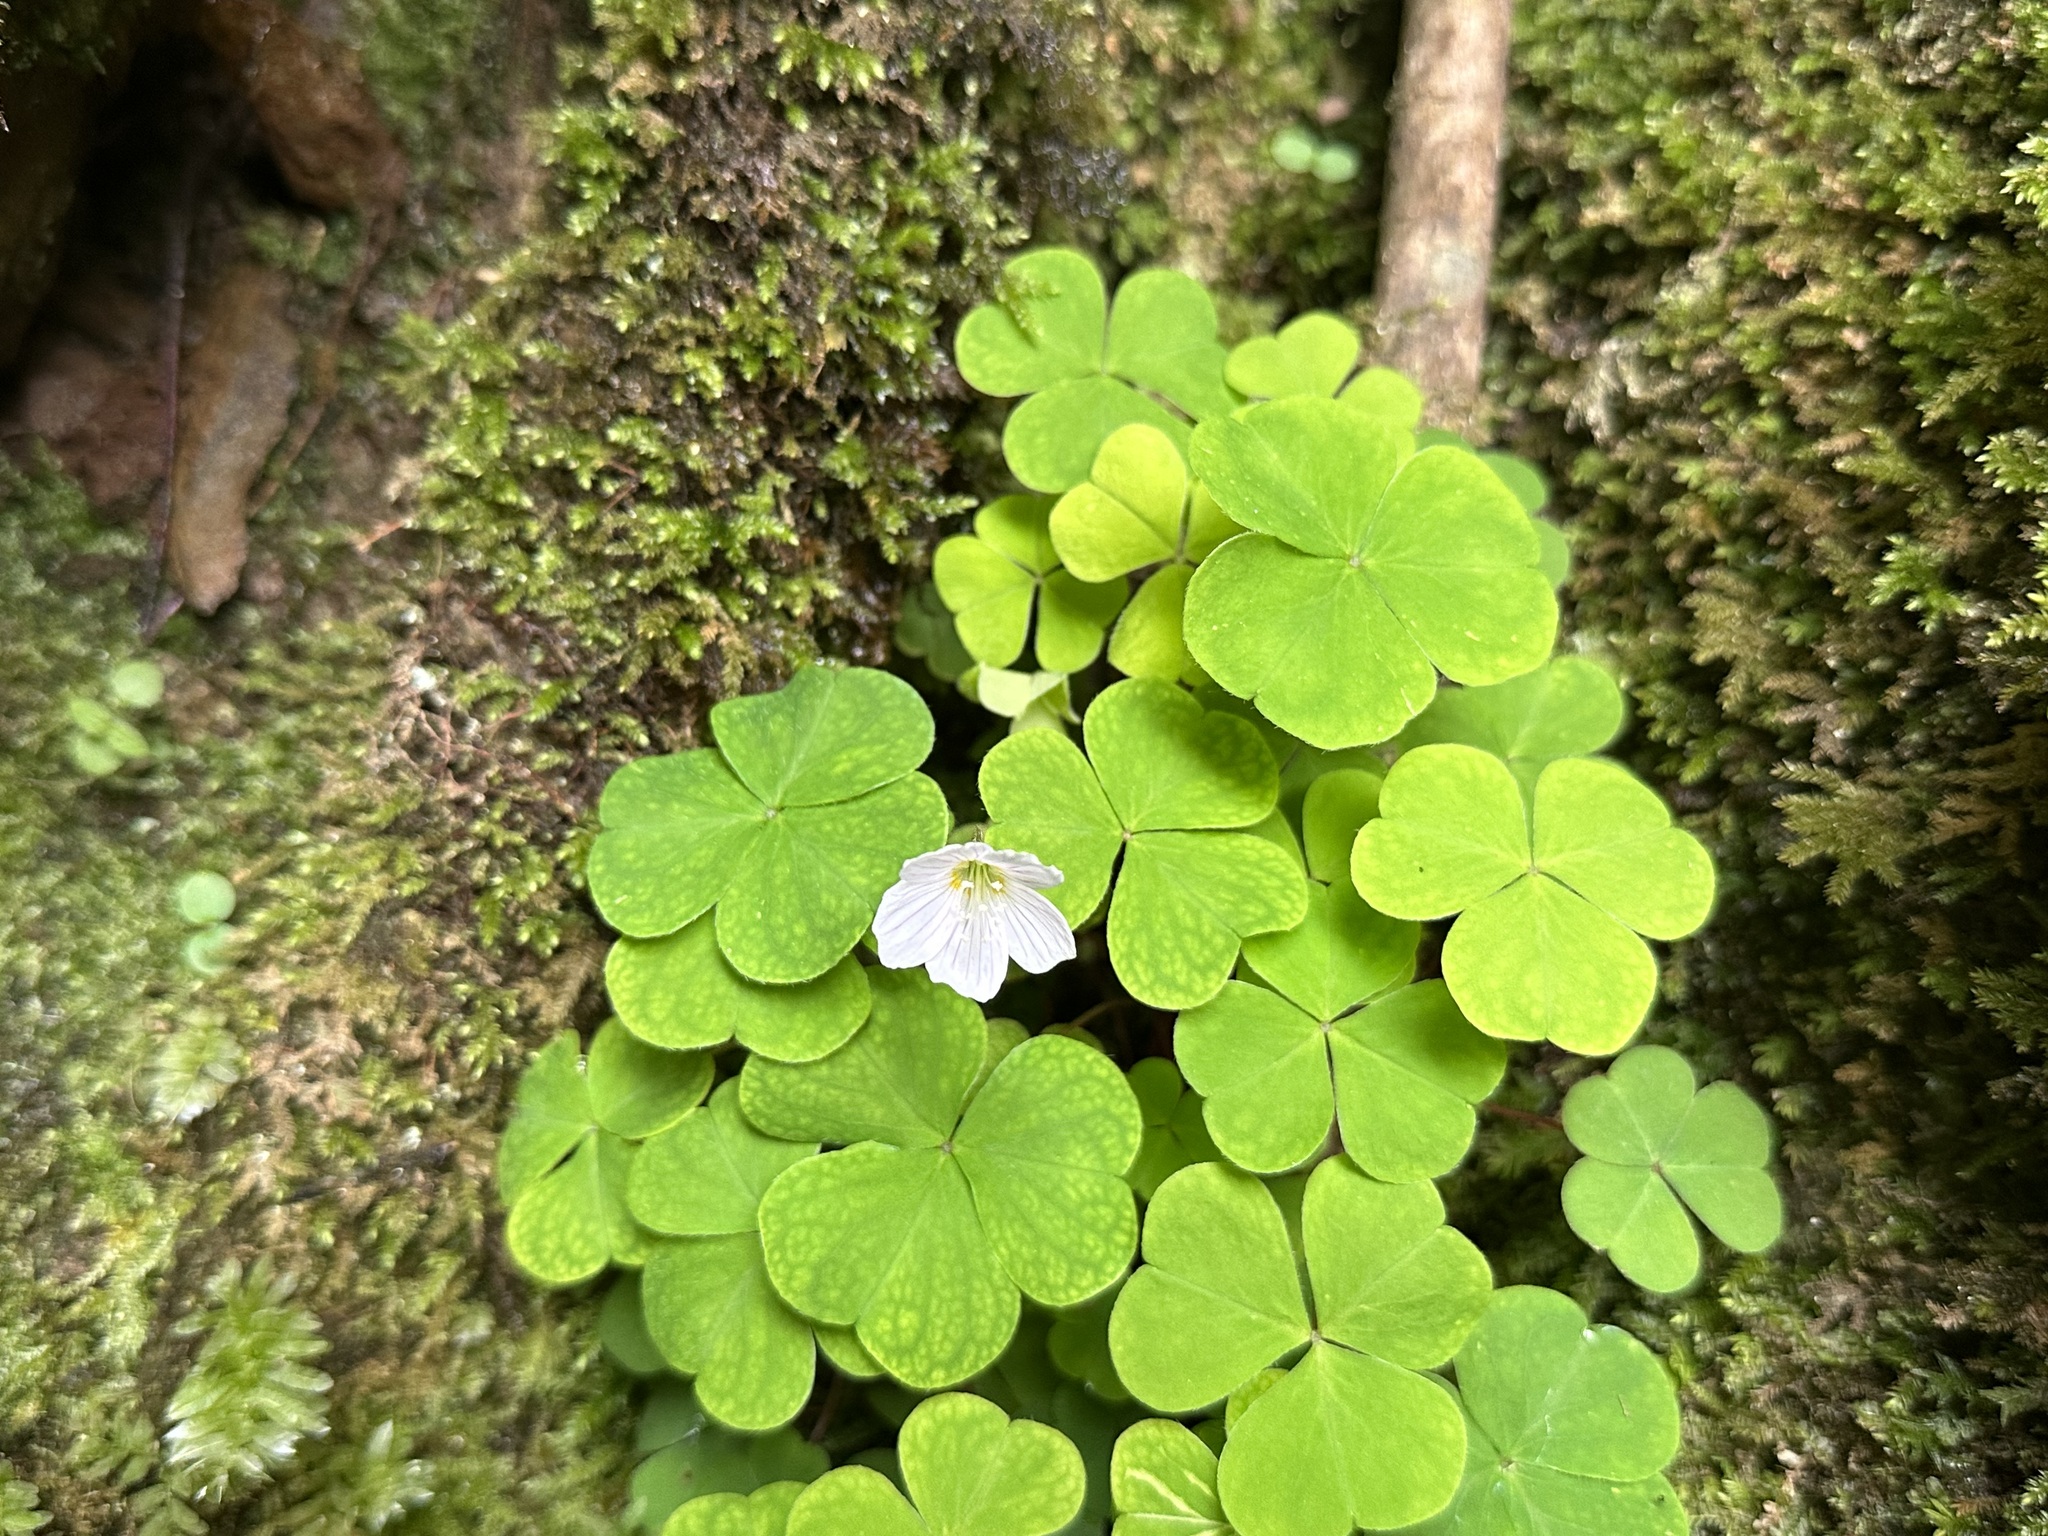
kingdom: Plantae
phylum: Tracheophyta
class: Magnoliopsida
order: Oxalidales
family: Oxalidaceae
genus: Oxalis
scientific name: Oxalis acetosella
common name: Wood-sorrel
